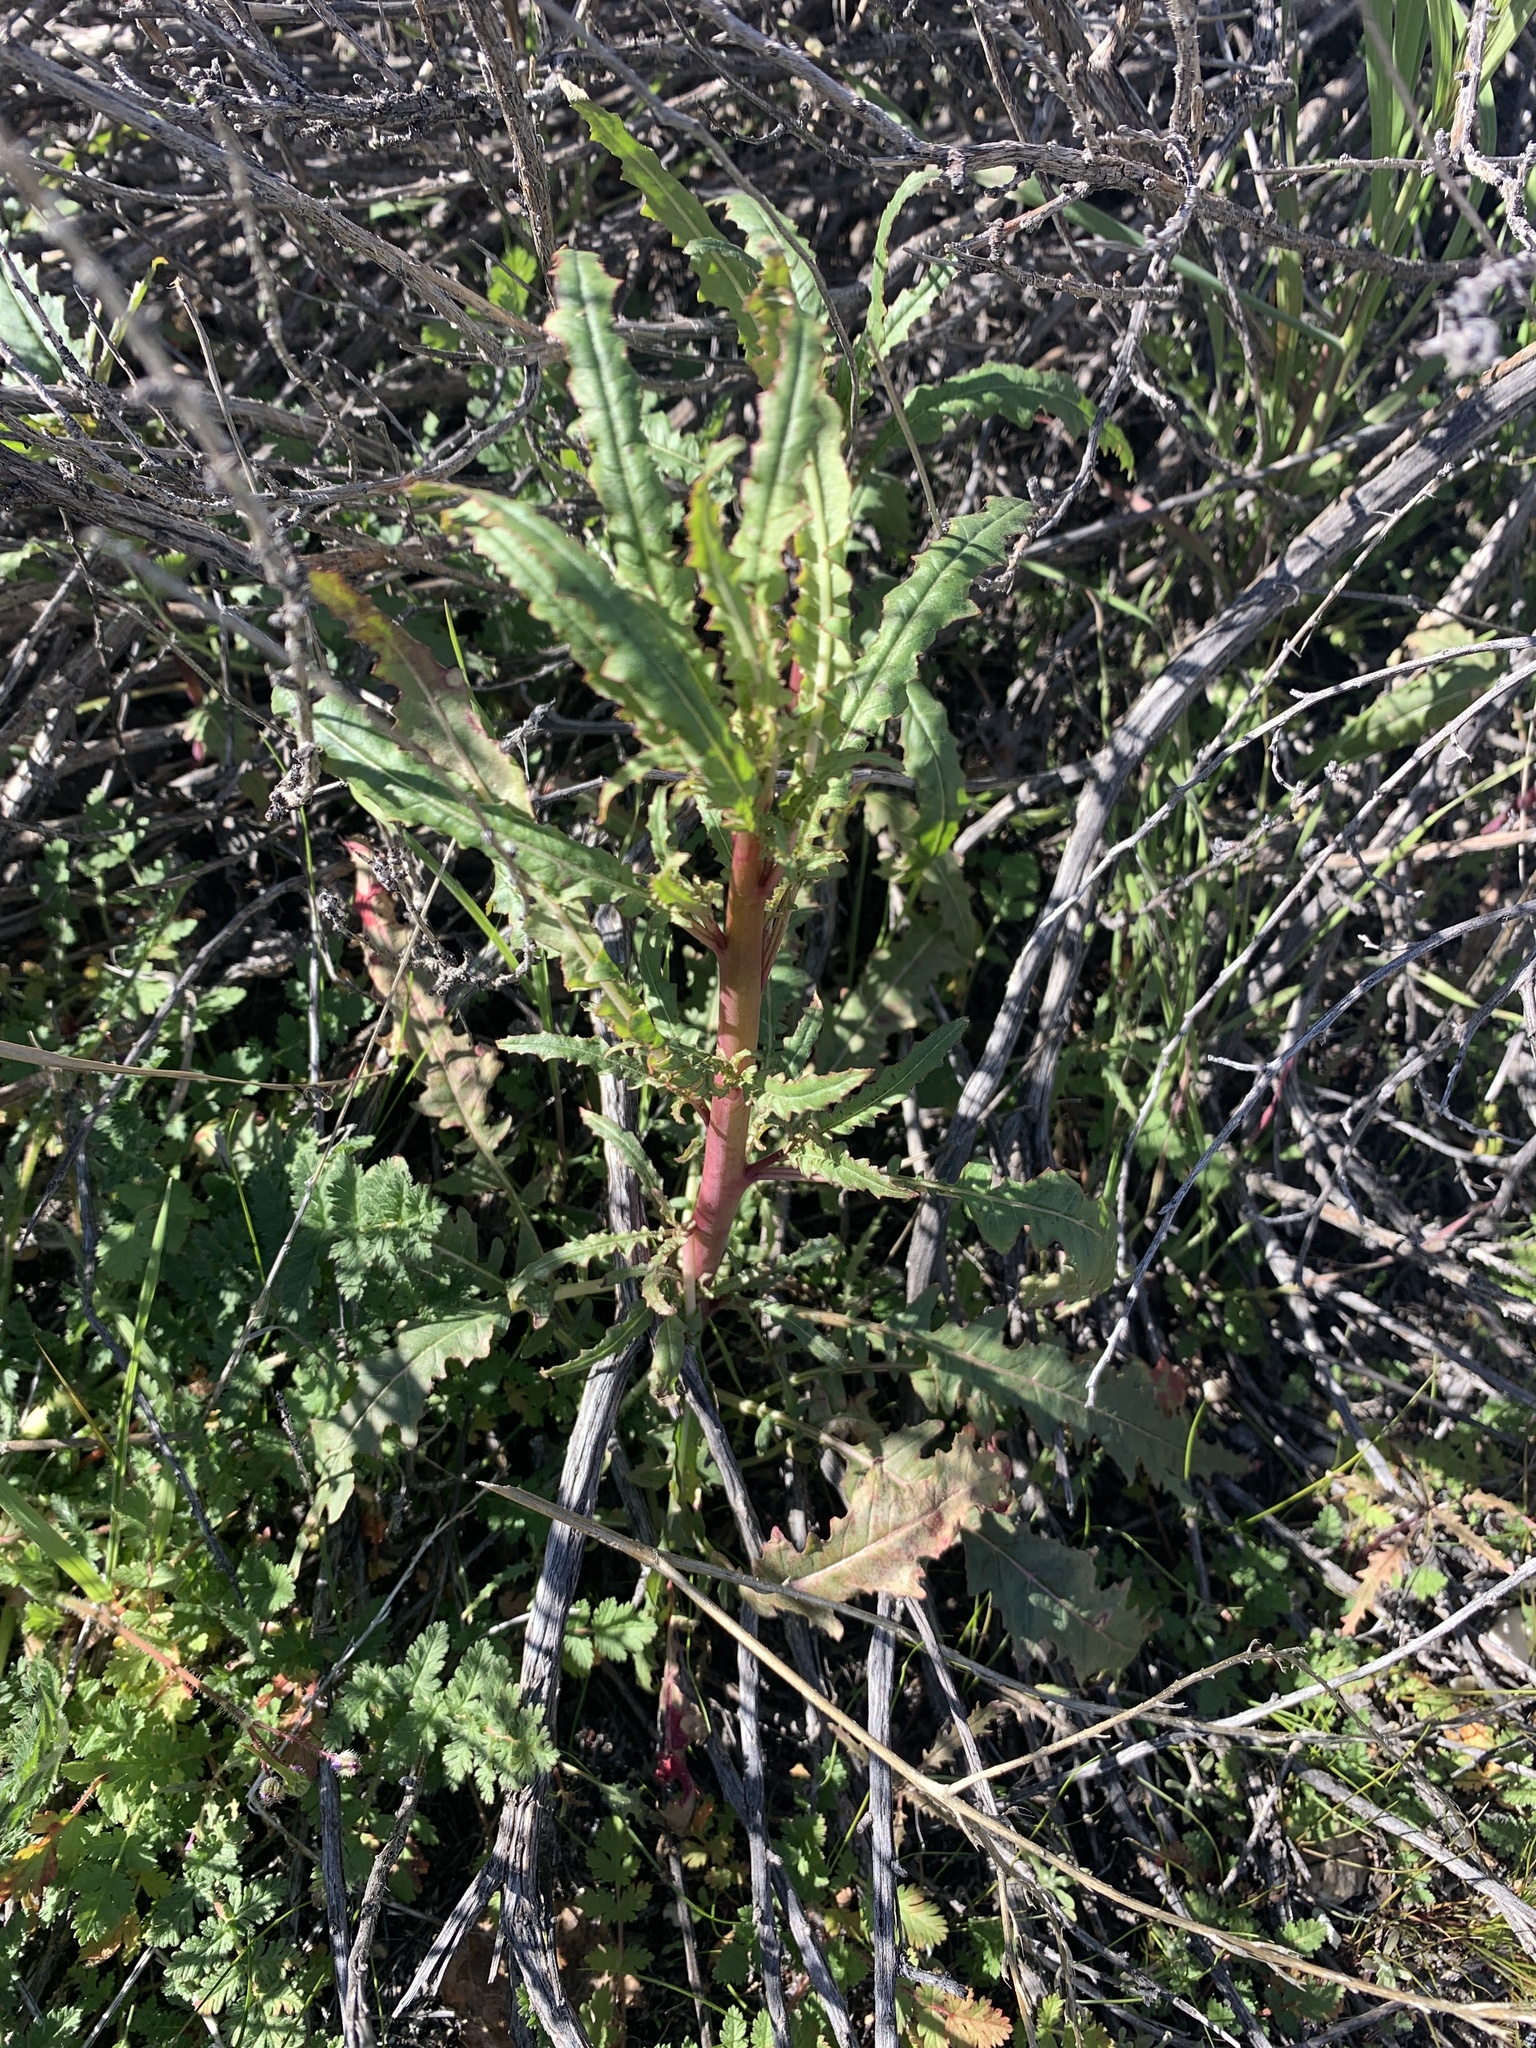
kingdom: Plantae
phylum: Tracheophyta
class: Magnoliopsida
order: Myrtales
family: Onagraceae
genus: Eulobus
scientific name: Eulobus californicus
